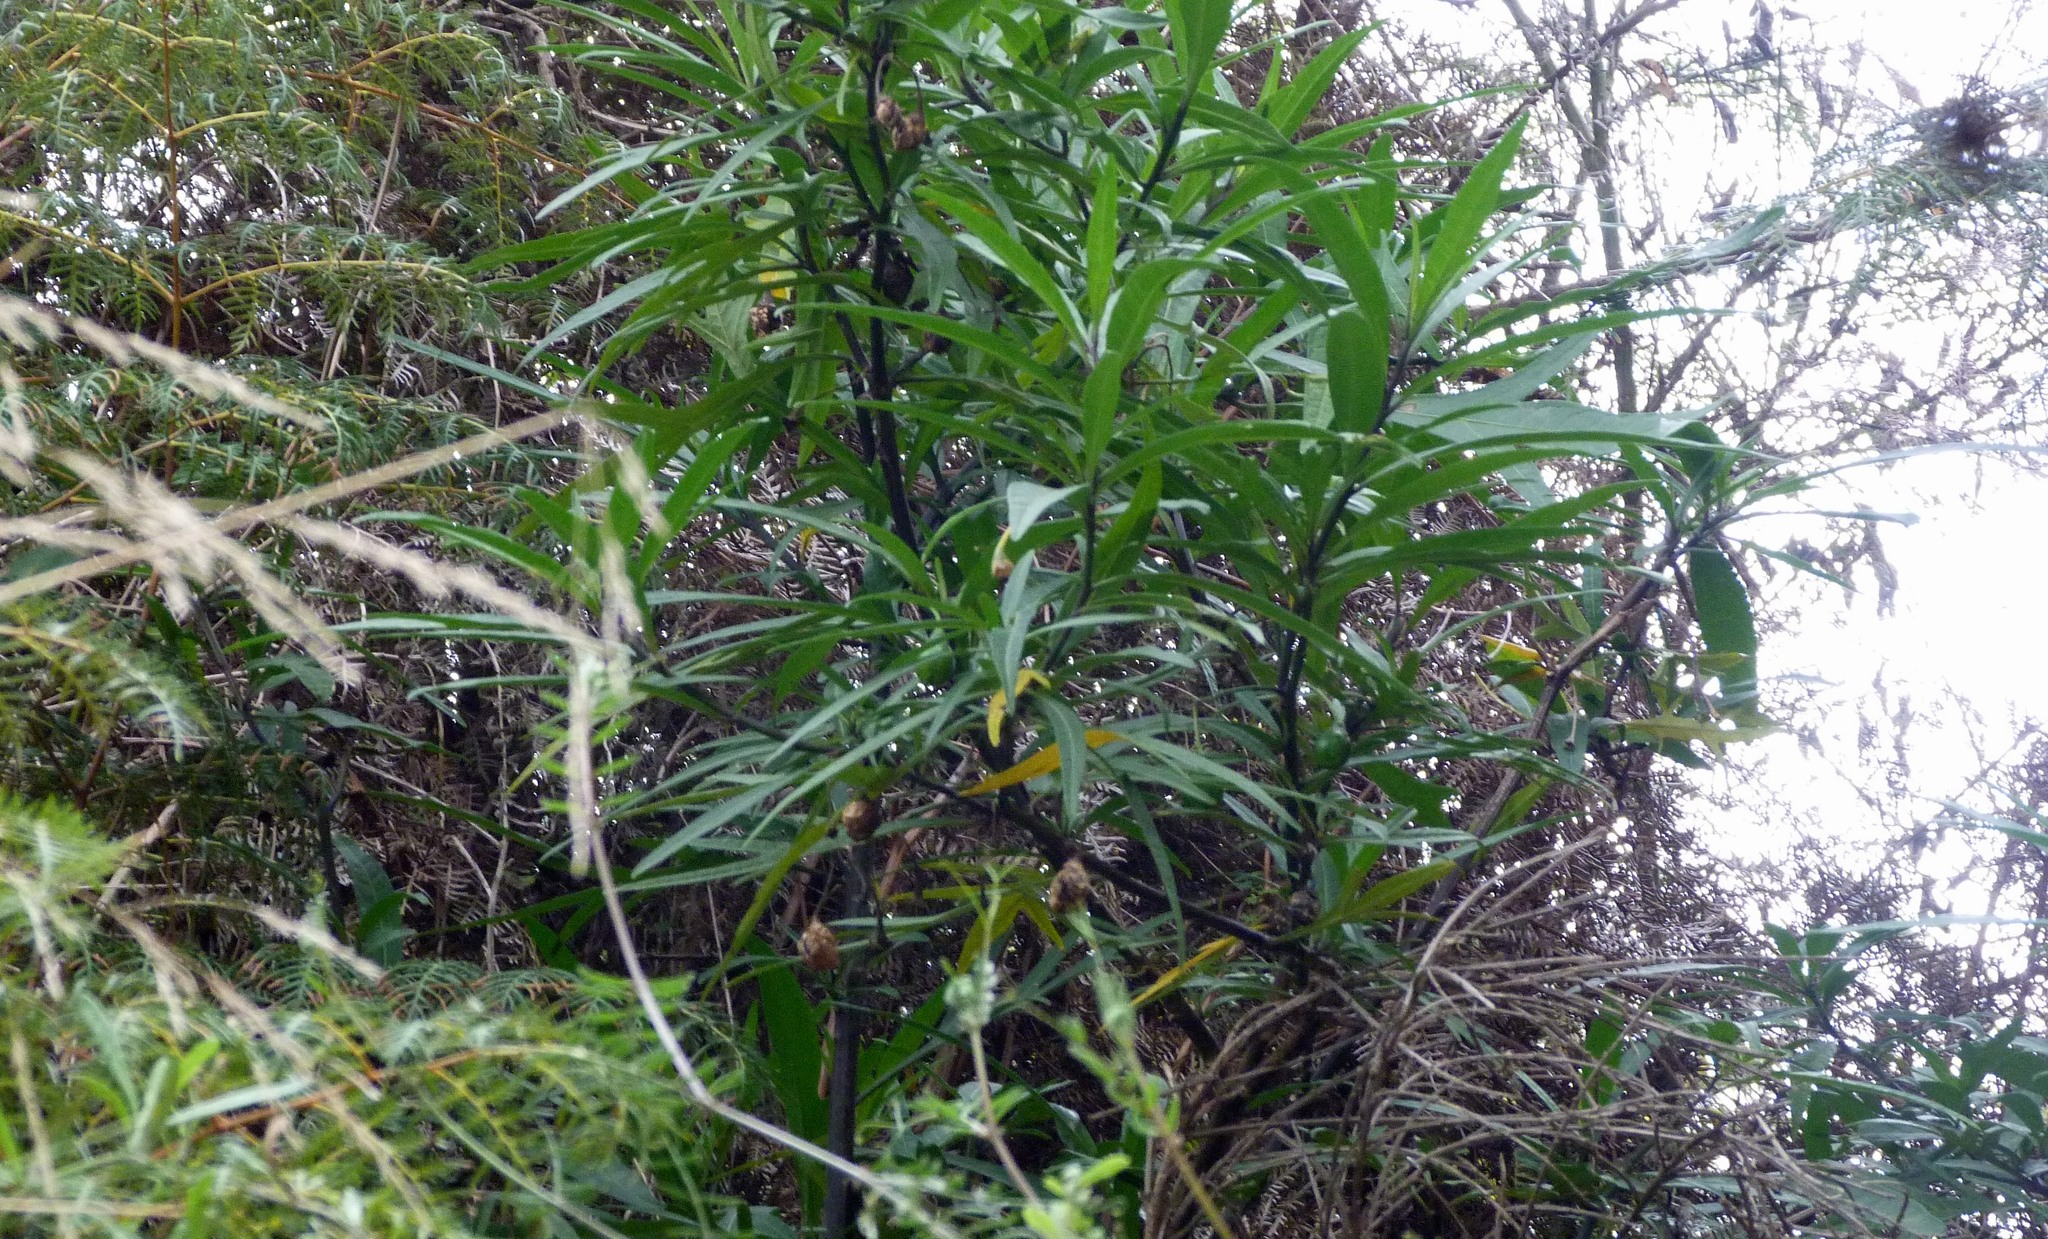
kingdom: Plantae
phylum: Tracheophyta
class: Magnoliopsida
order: Solanales
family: Solanaceae
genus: Solanum
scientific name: Solanum laciniatum
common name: Kangaroo-apple
